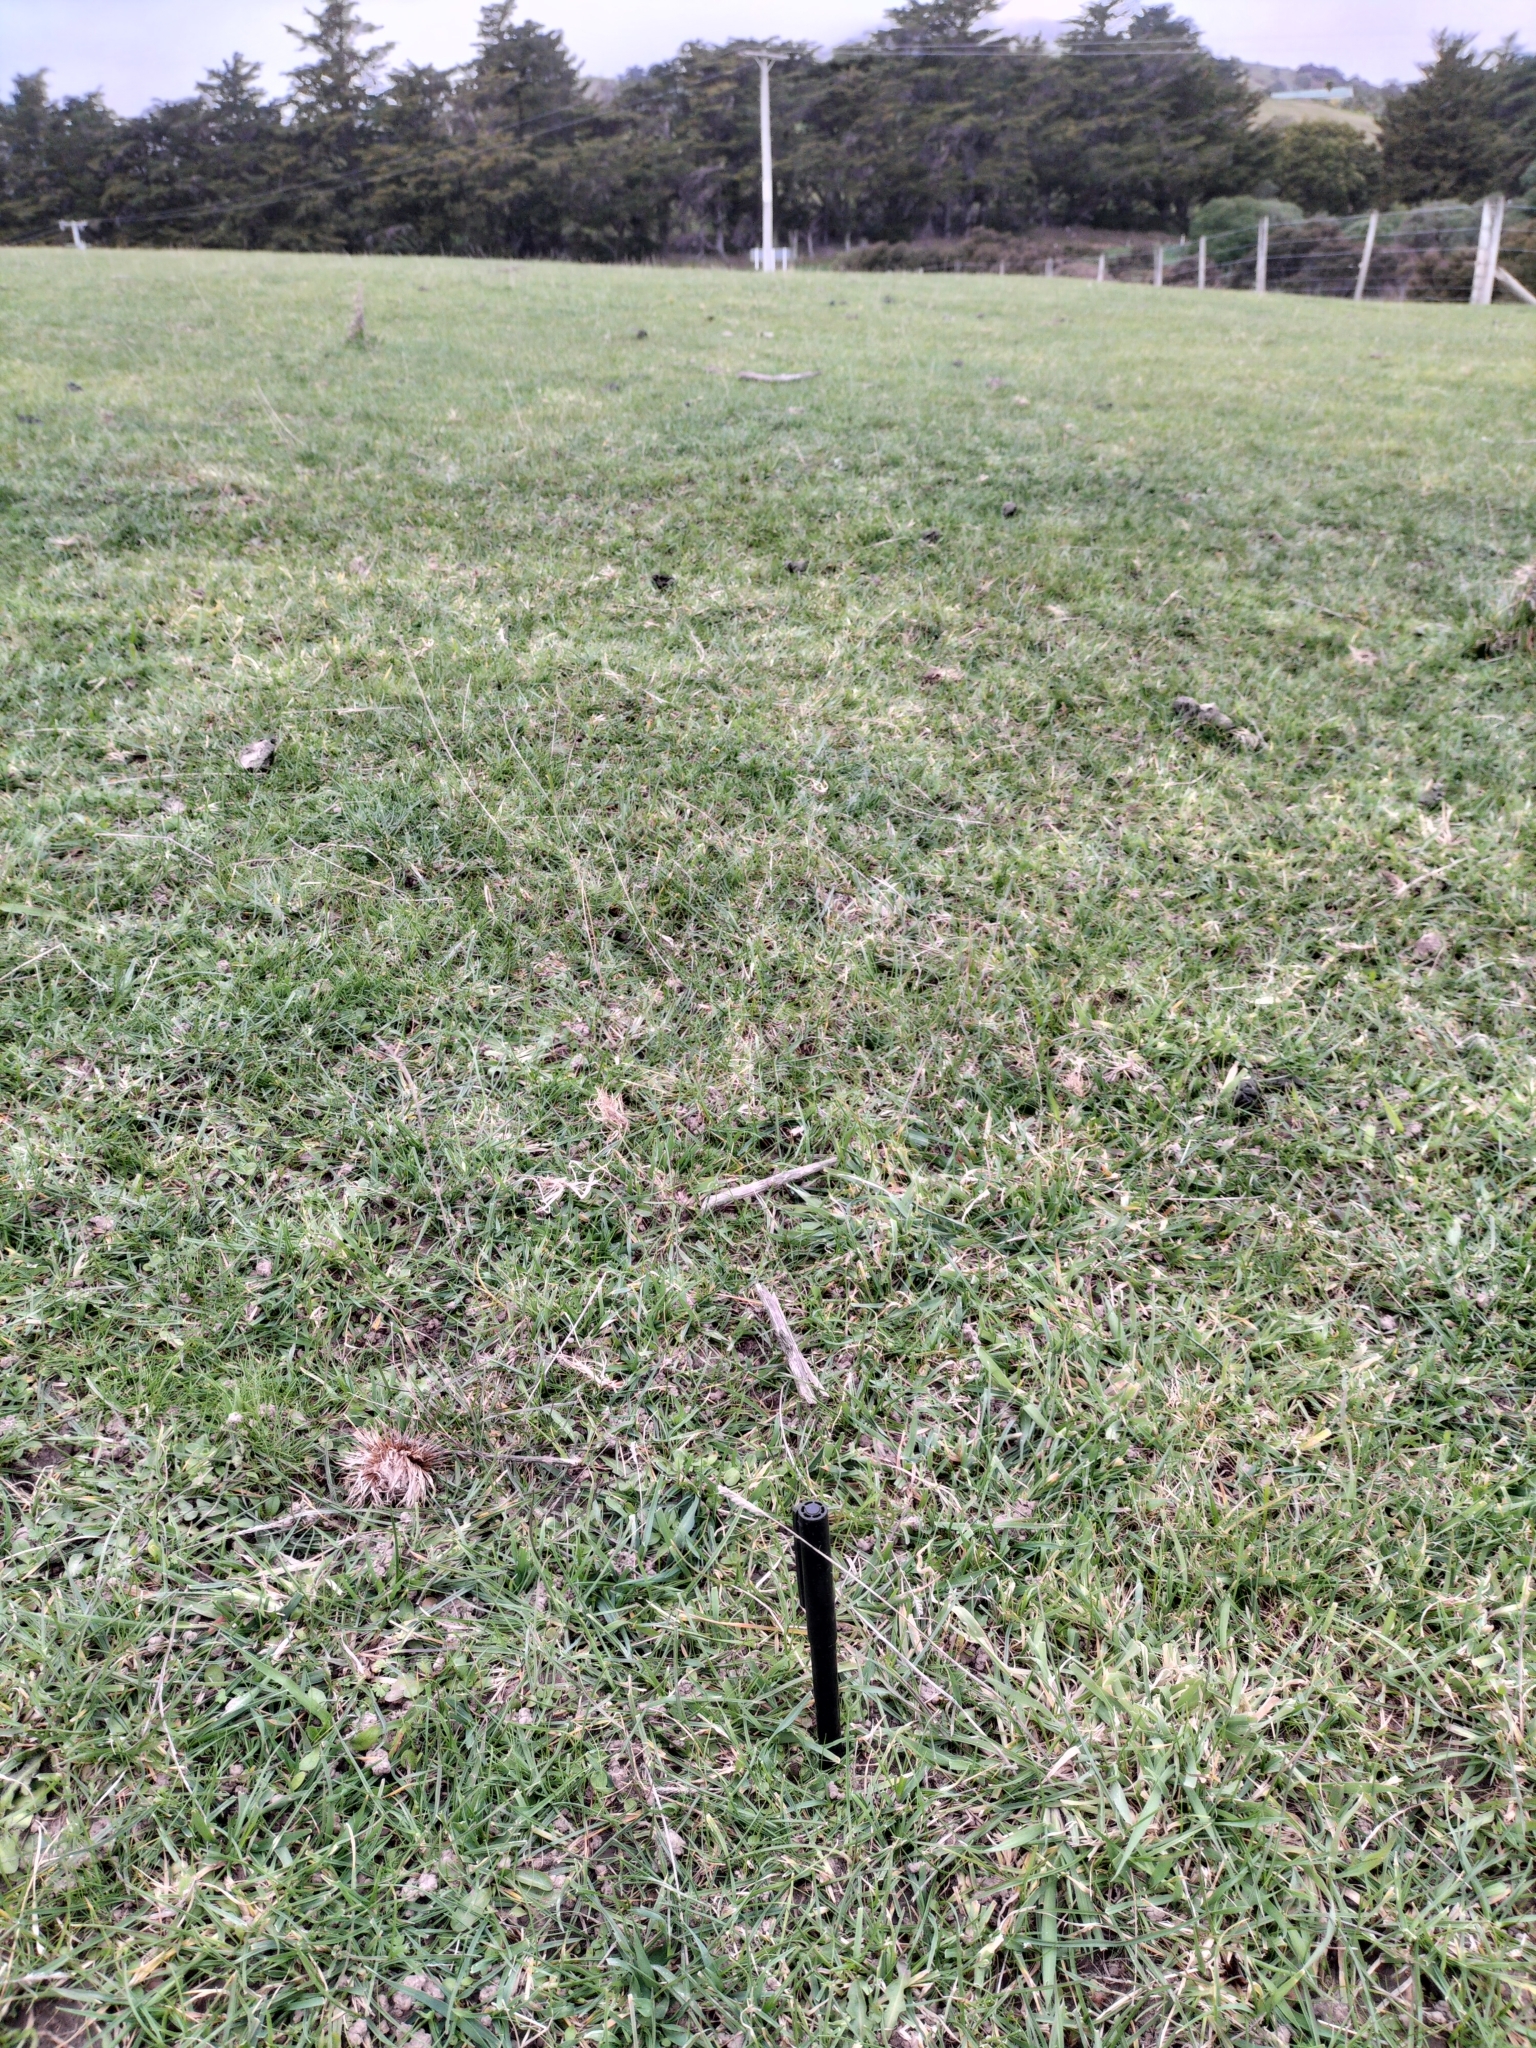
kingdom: Plantae
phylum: Tracheophyta
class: Liliopsida
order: Poales
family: Poaceae
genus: Cynosurus
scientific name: Cynosurus cristatus
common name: Crested dog's-tail
